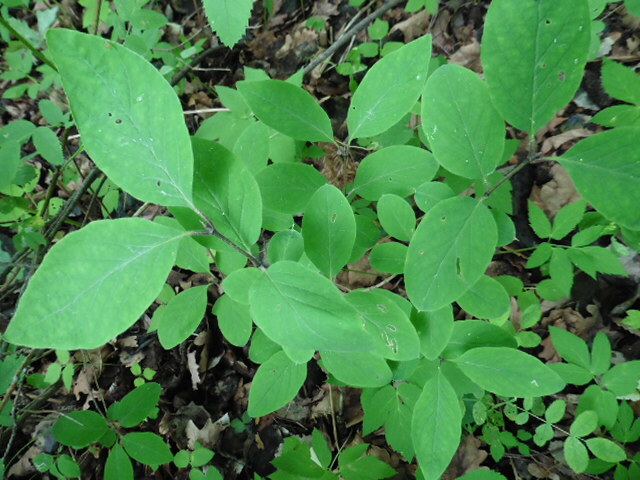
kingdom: Plantae
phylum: Tracheophyta
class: Magnoliopsida
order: Dipsacales
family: Caprifoliaceae
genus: Lonicera
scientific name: Lonicera xylosteum
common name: Fly honeysuckle
